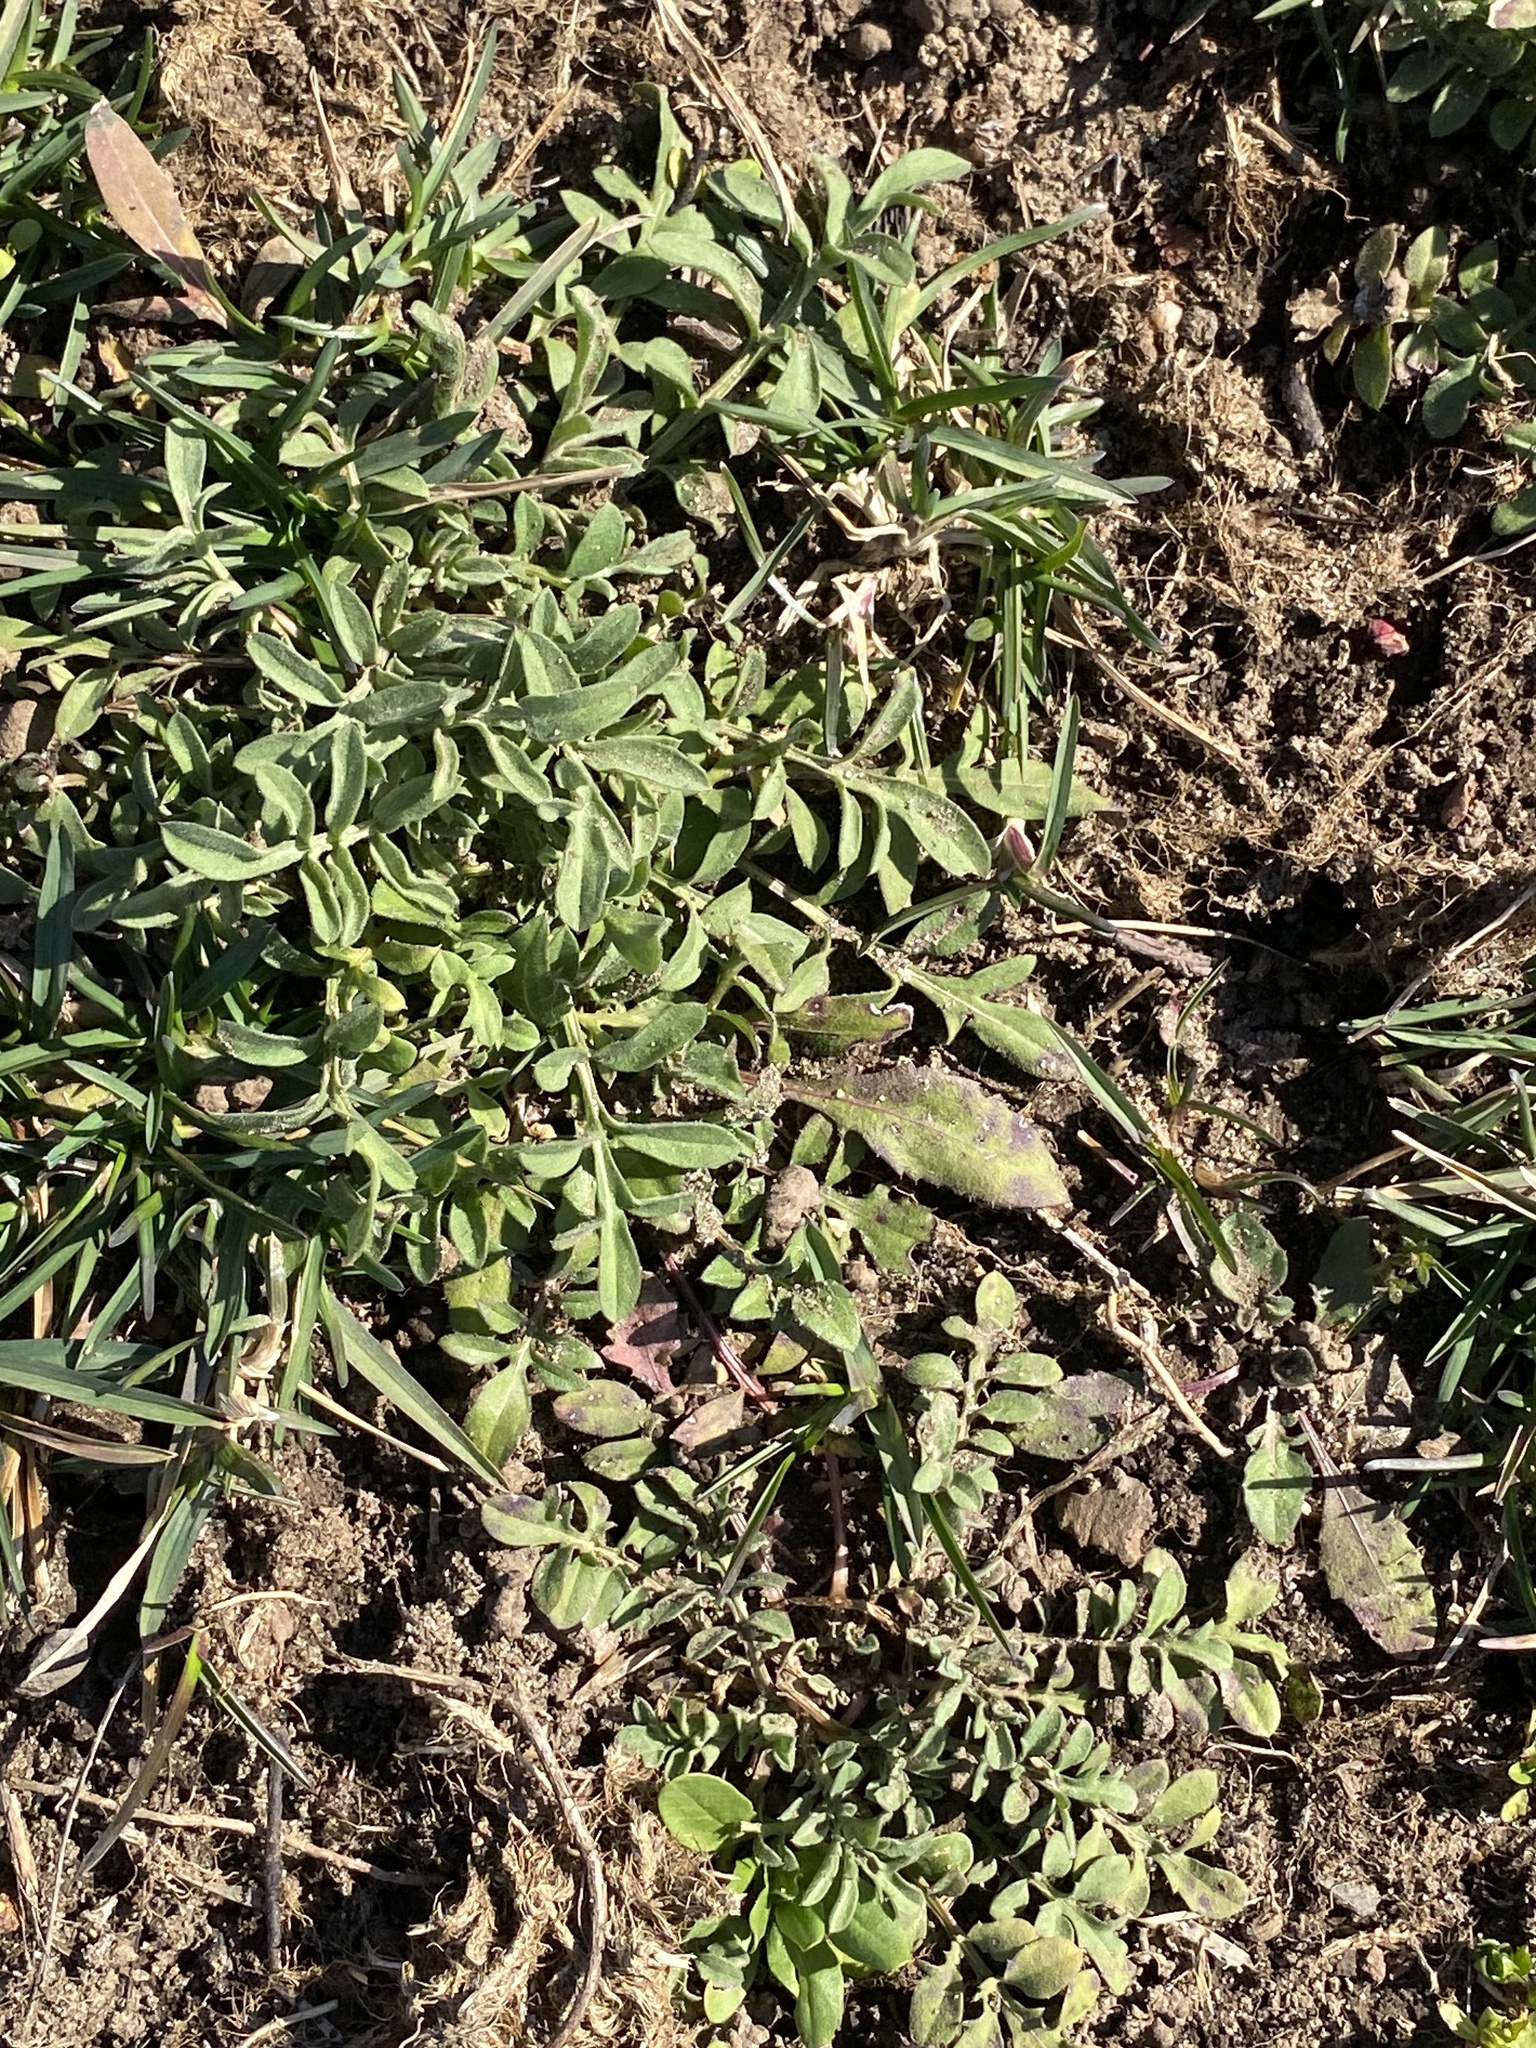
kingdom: Plantae
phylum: Tracheophyta
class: Magnoliopsida
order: Asterales
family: Asteraceae
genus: Centaurea
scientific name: Centaurea stoebe
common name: Spotted knapweed
